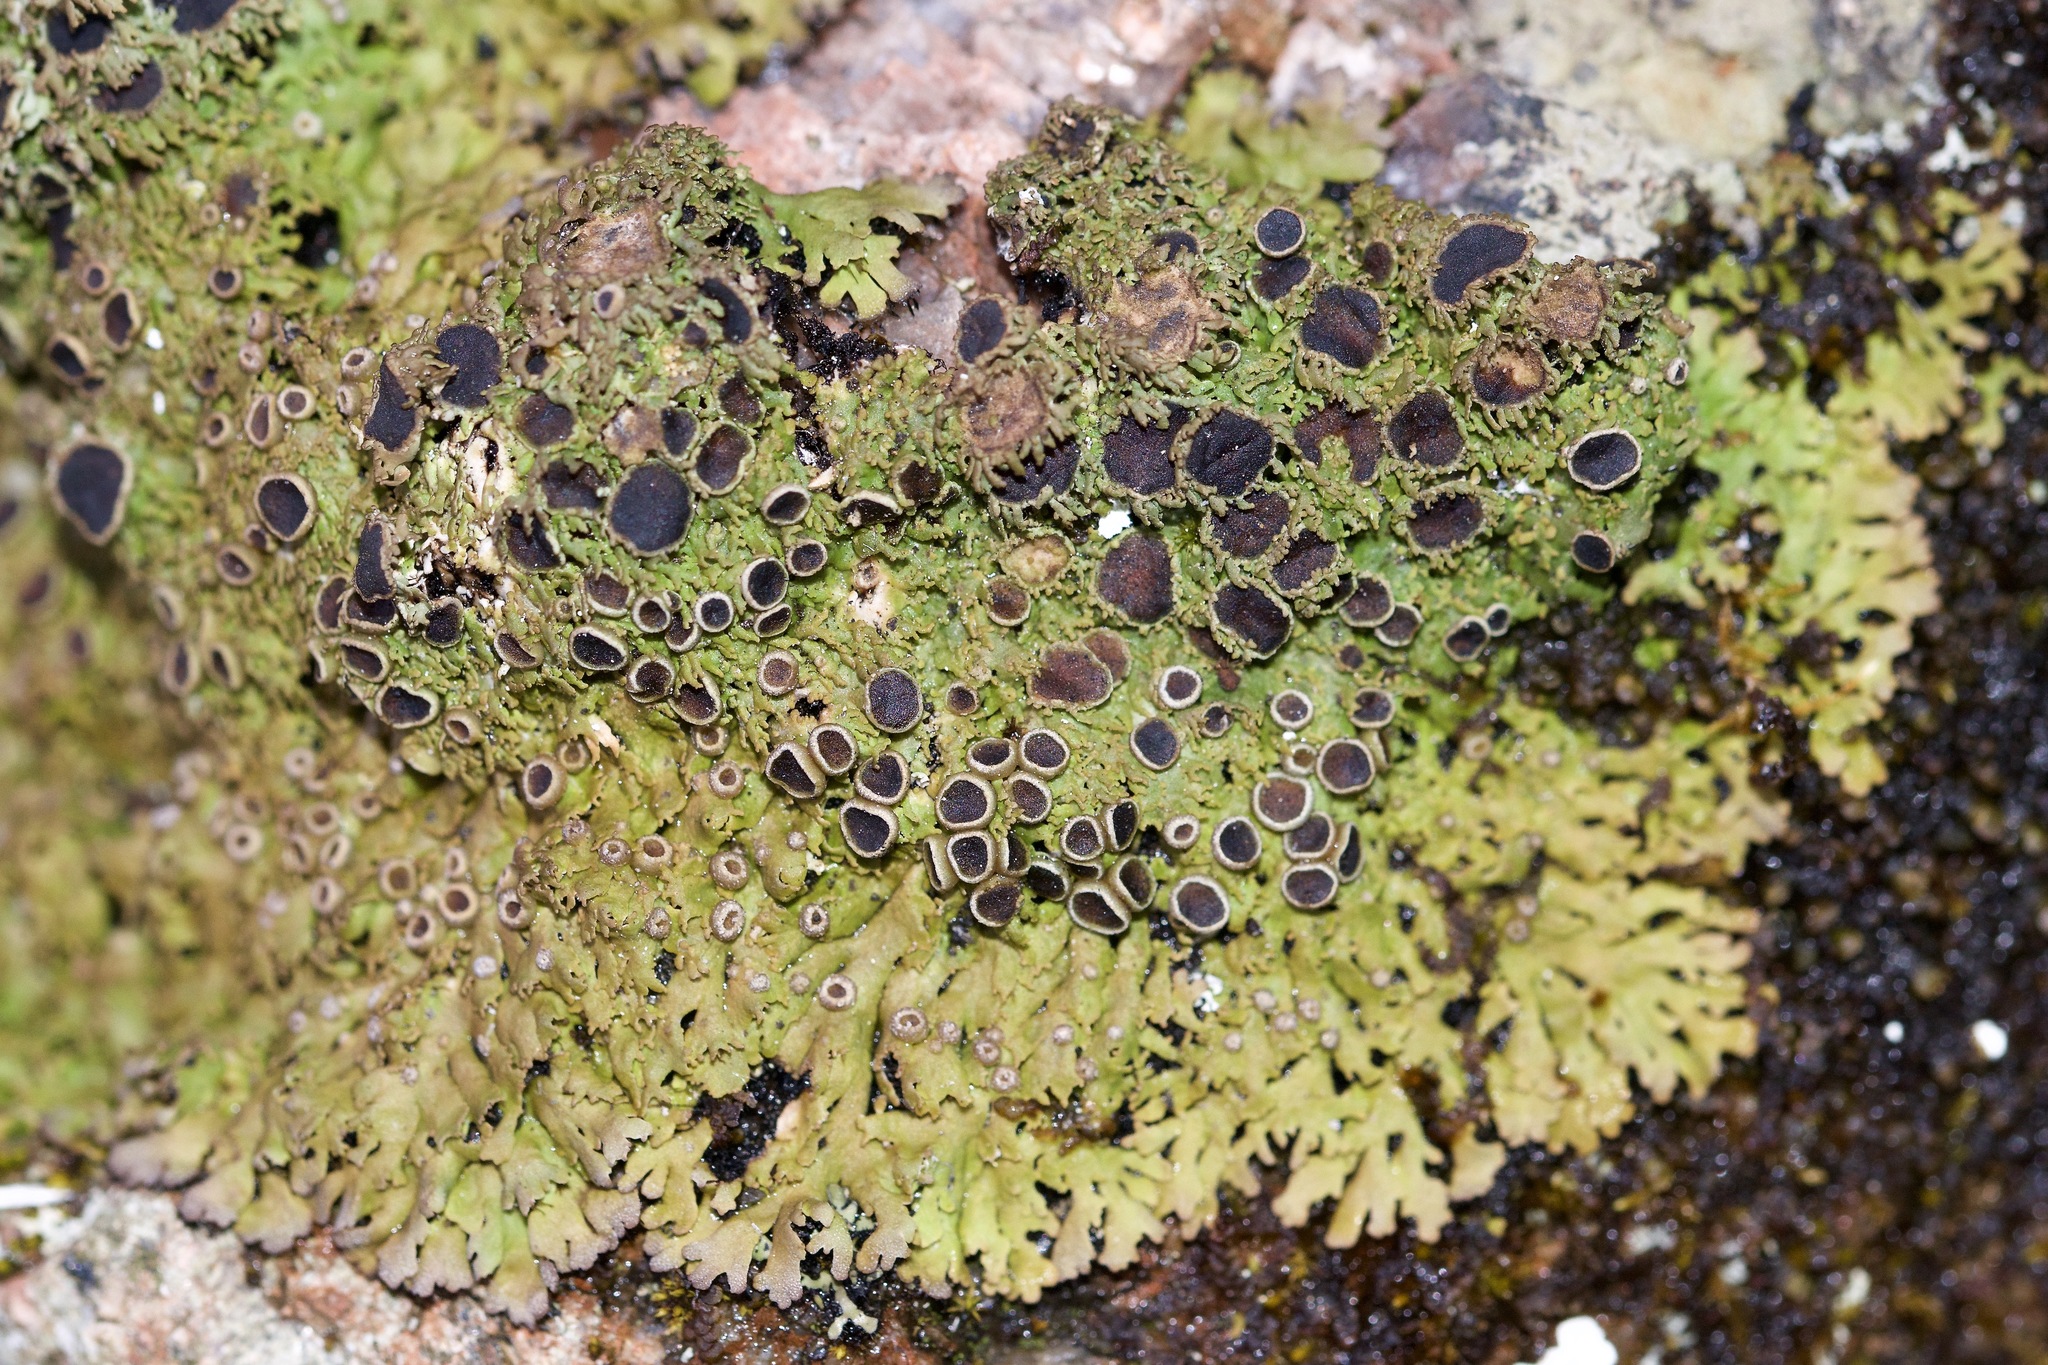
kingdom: Fungi
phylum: Ascomycota
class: Lecanoromycetes
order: Caliciales
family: Physciaceae
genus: Kurokawia
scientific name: Kurokawia palmulata
